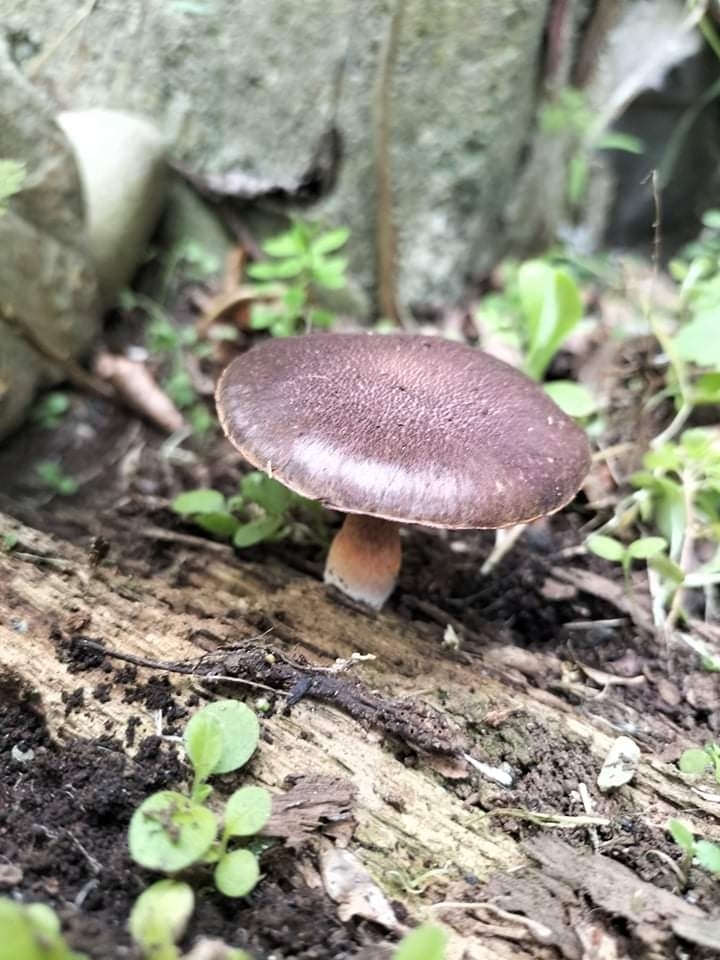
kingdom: Fungi
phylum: Basidiomycota
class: Agaricomycetes
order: Agaricales
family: Hymenogastraceae
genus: Gymnopilus
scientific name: Gymnopilus purpuratus
